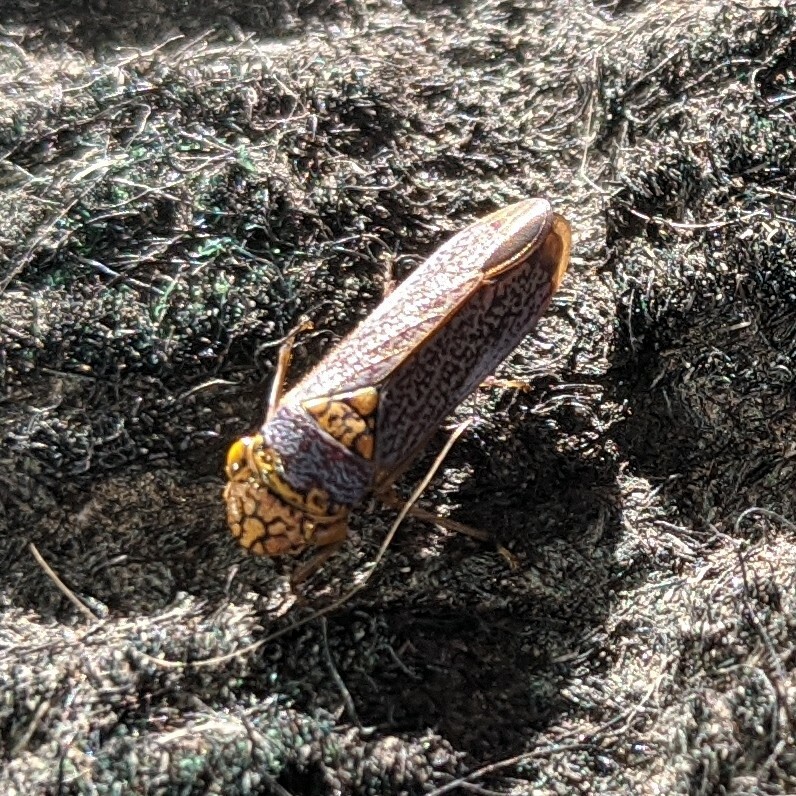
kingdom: Animalia
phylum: Arthropoda
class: Insecta
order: Hemiptera
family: Cicadellidae
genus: Oncometopia
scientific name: Oncometopia orbona
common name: Broad-headed sharpshooter
